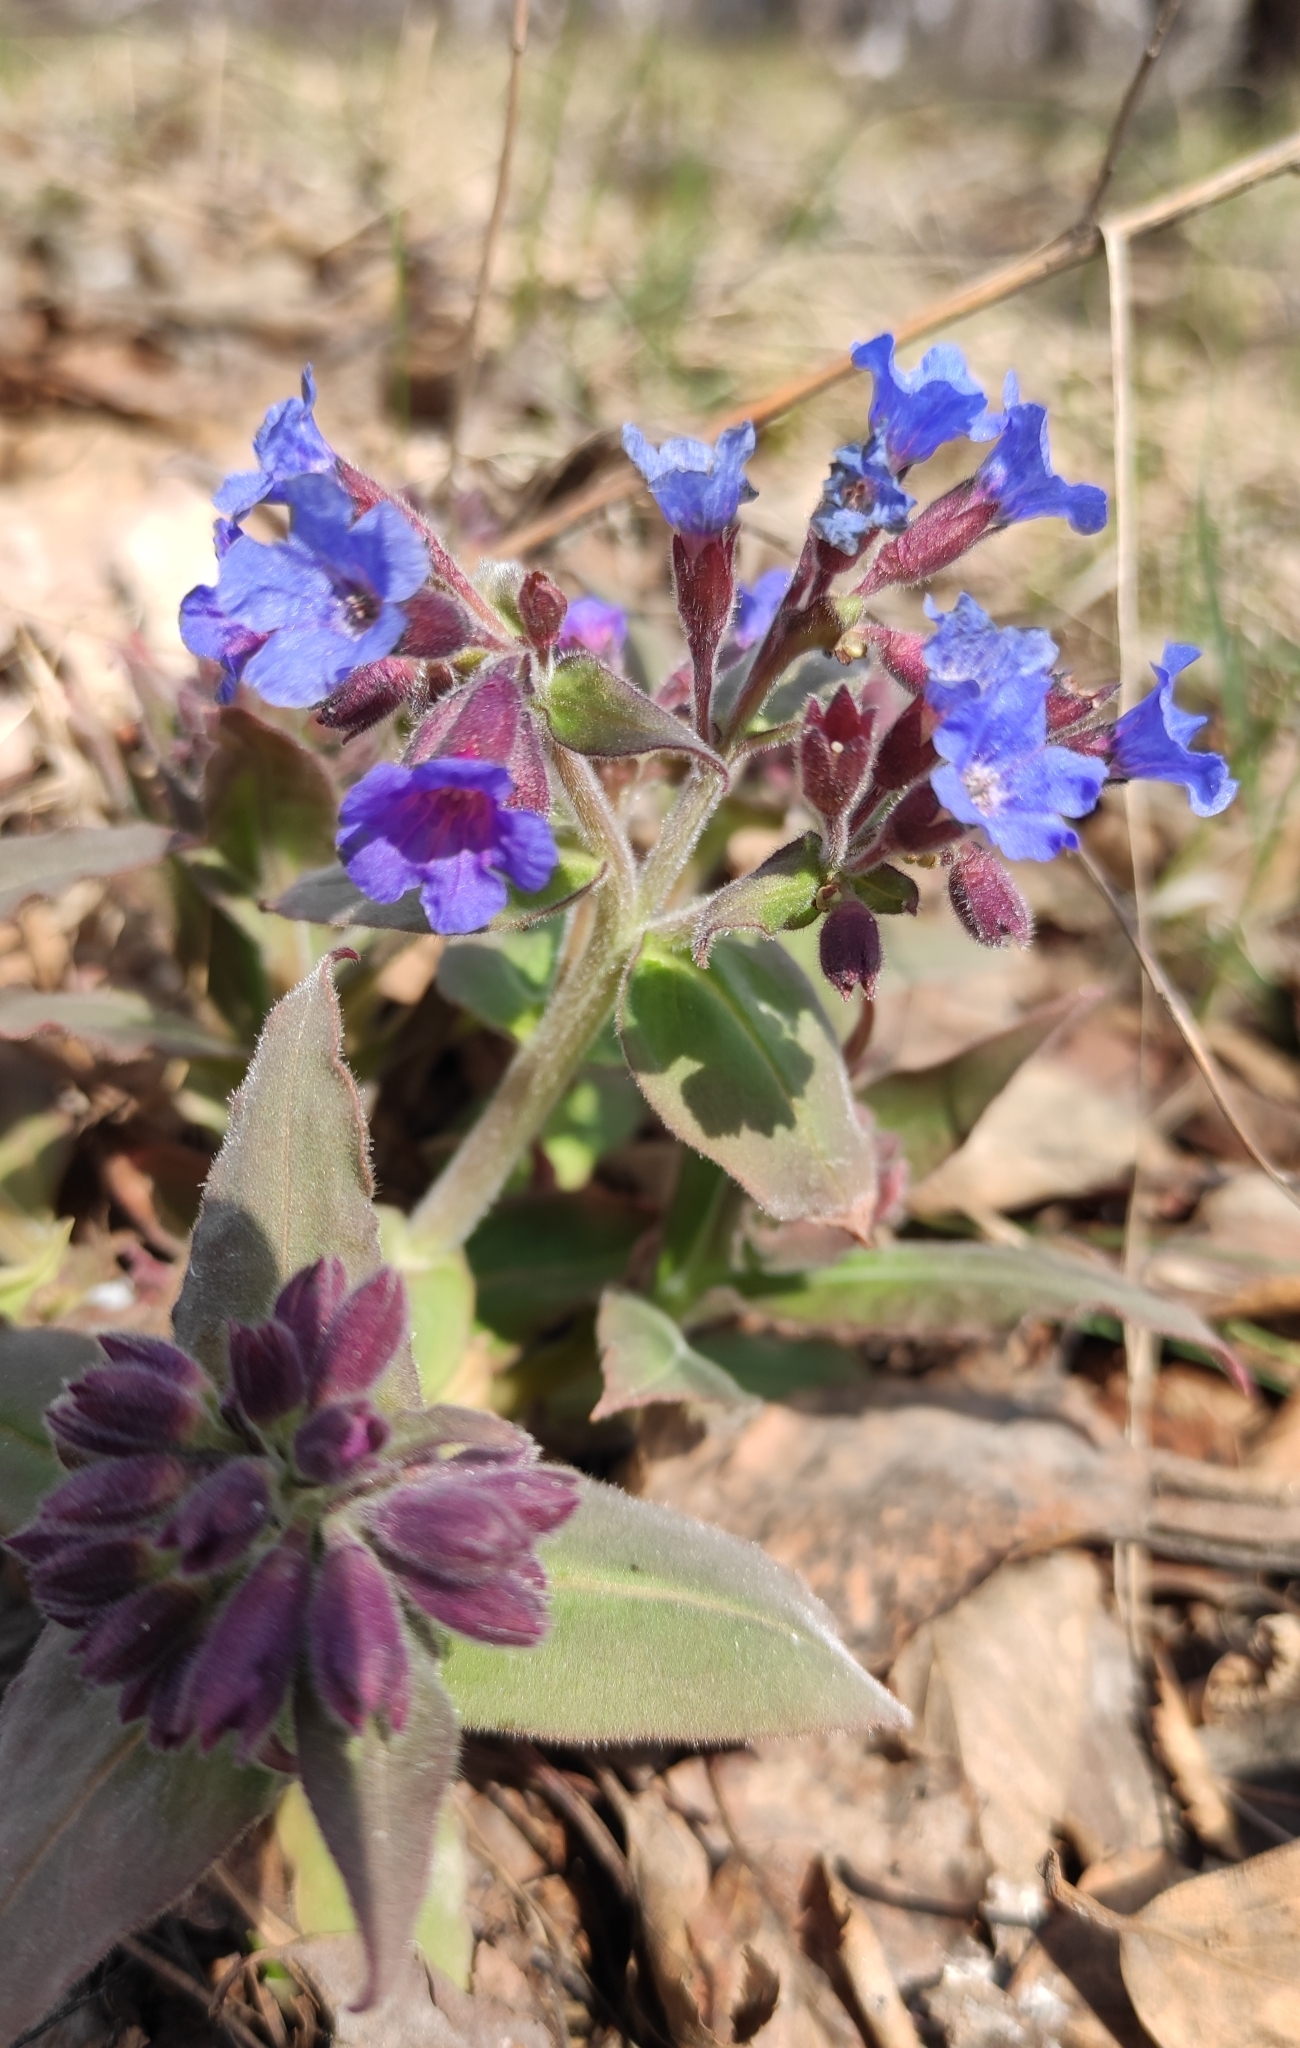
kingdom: Plantae
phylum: Tracheophyta
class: Magnoliopsida
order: Boraginales
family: Boraginaceae
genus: Pulmonaria
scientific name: Pulmonaria mollis
